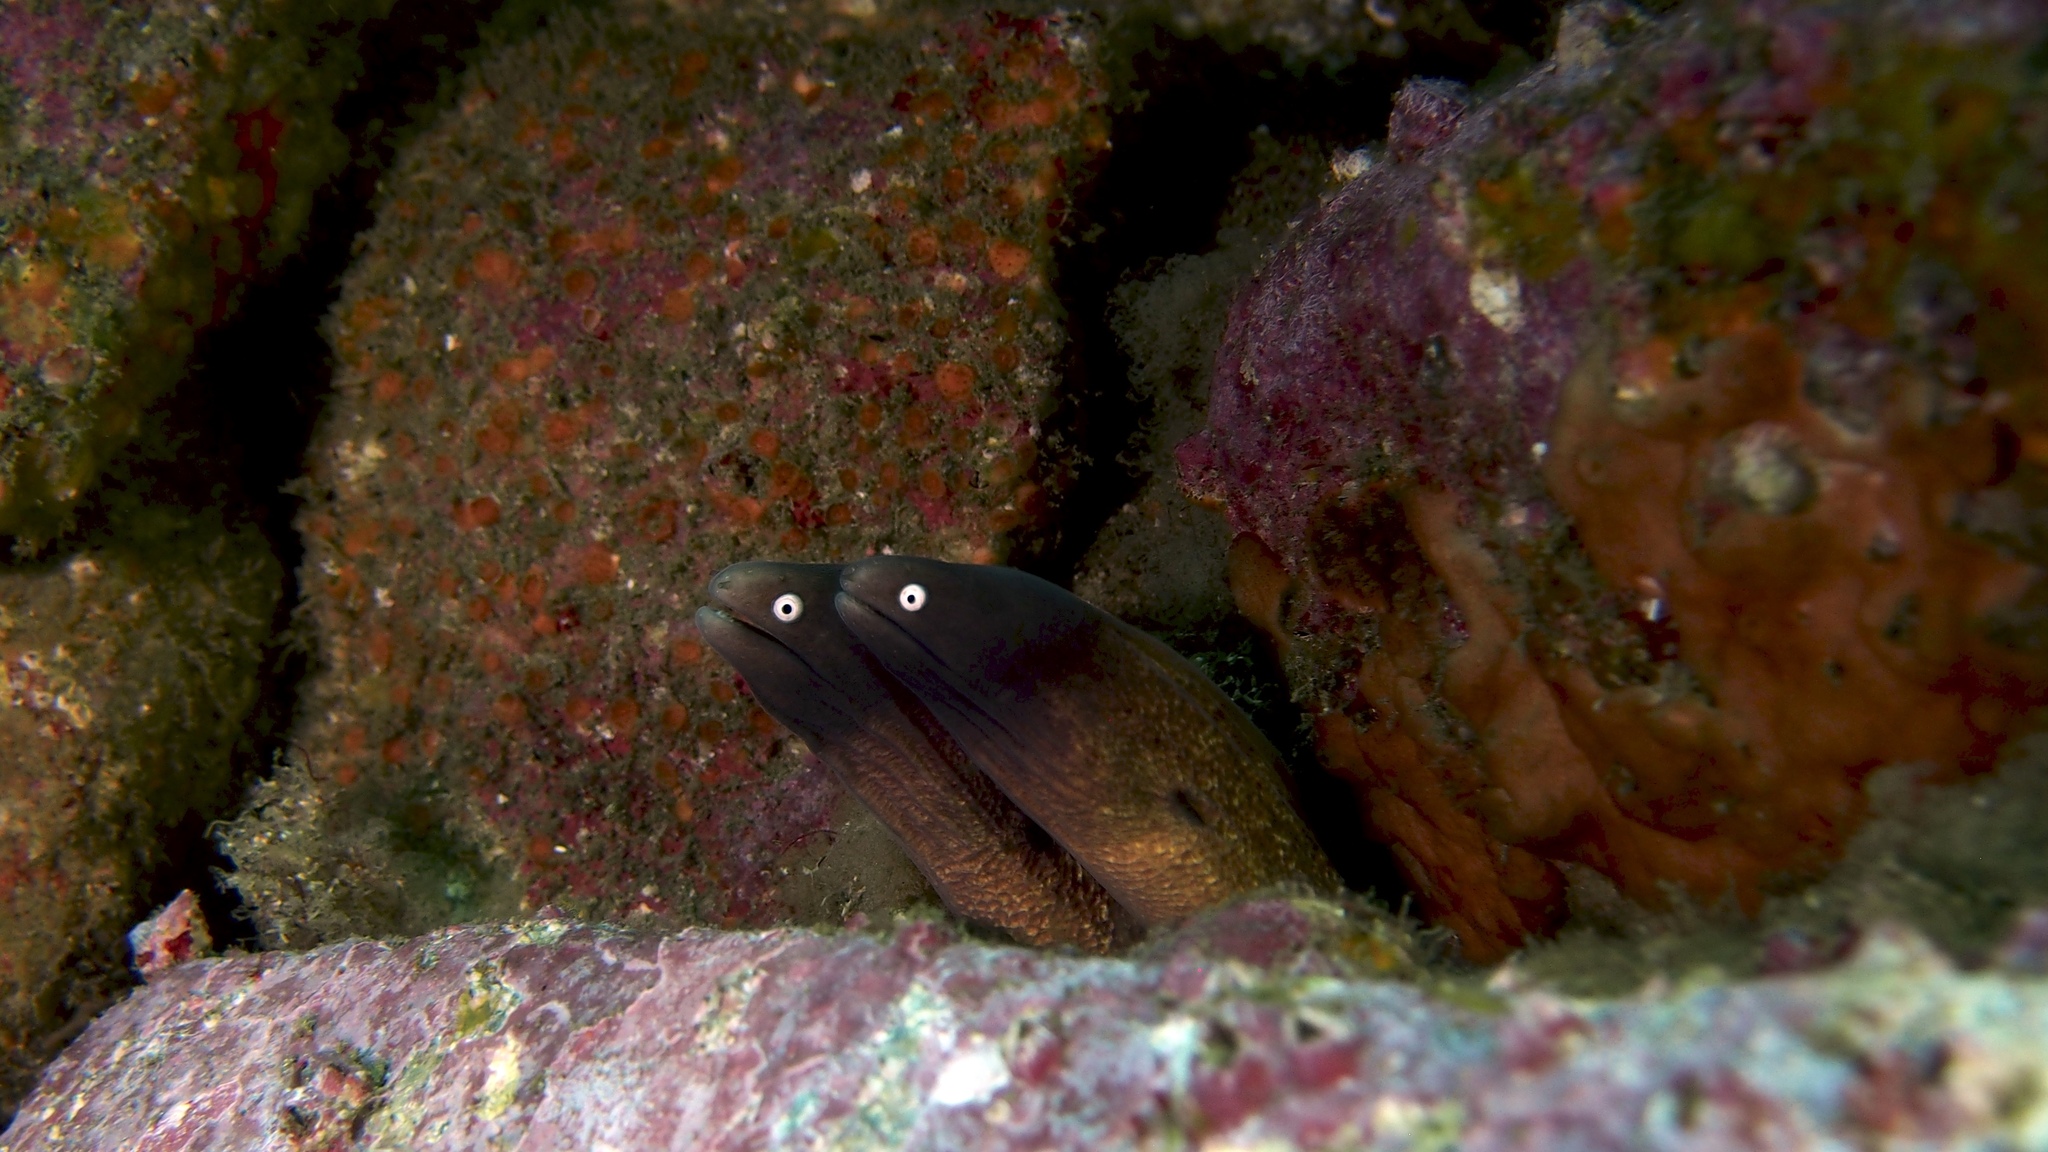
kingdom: Animalia
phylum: Chordata
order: Anguilliformes
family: Muraenidae
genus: Gymnothorax
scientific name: Gymnothorax thyrsoideus
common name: Greyface moray
